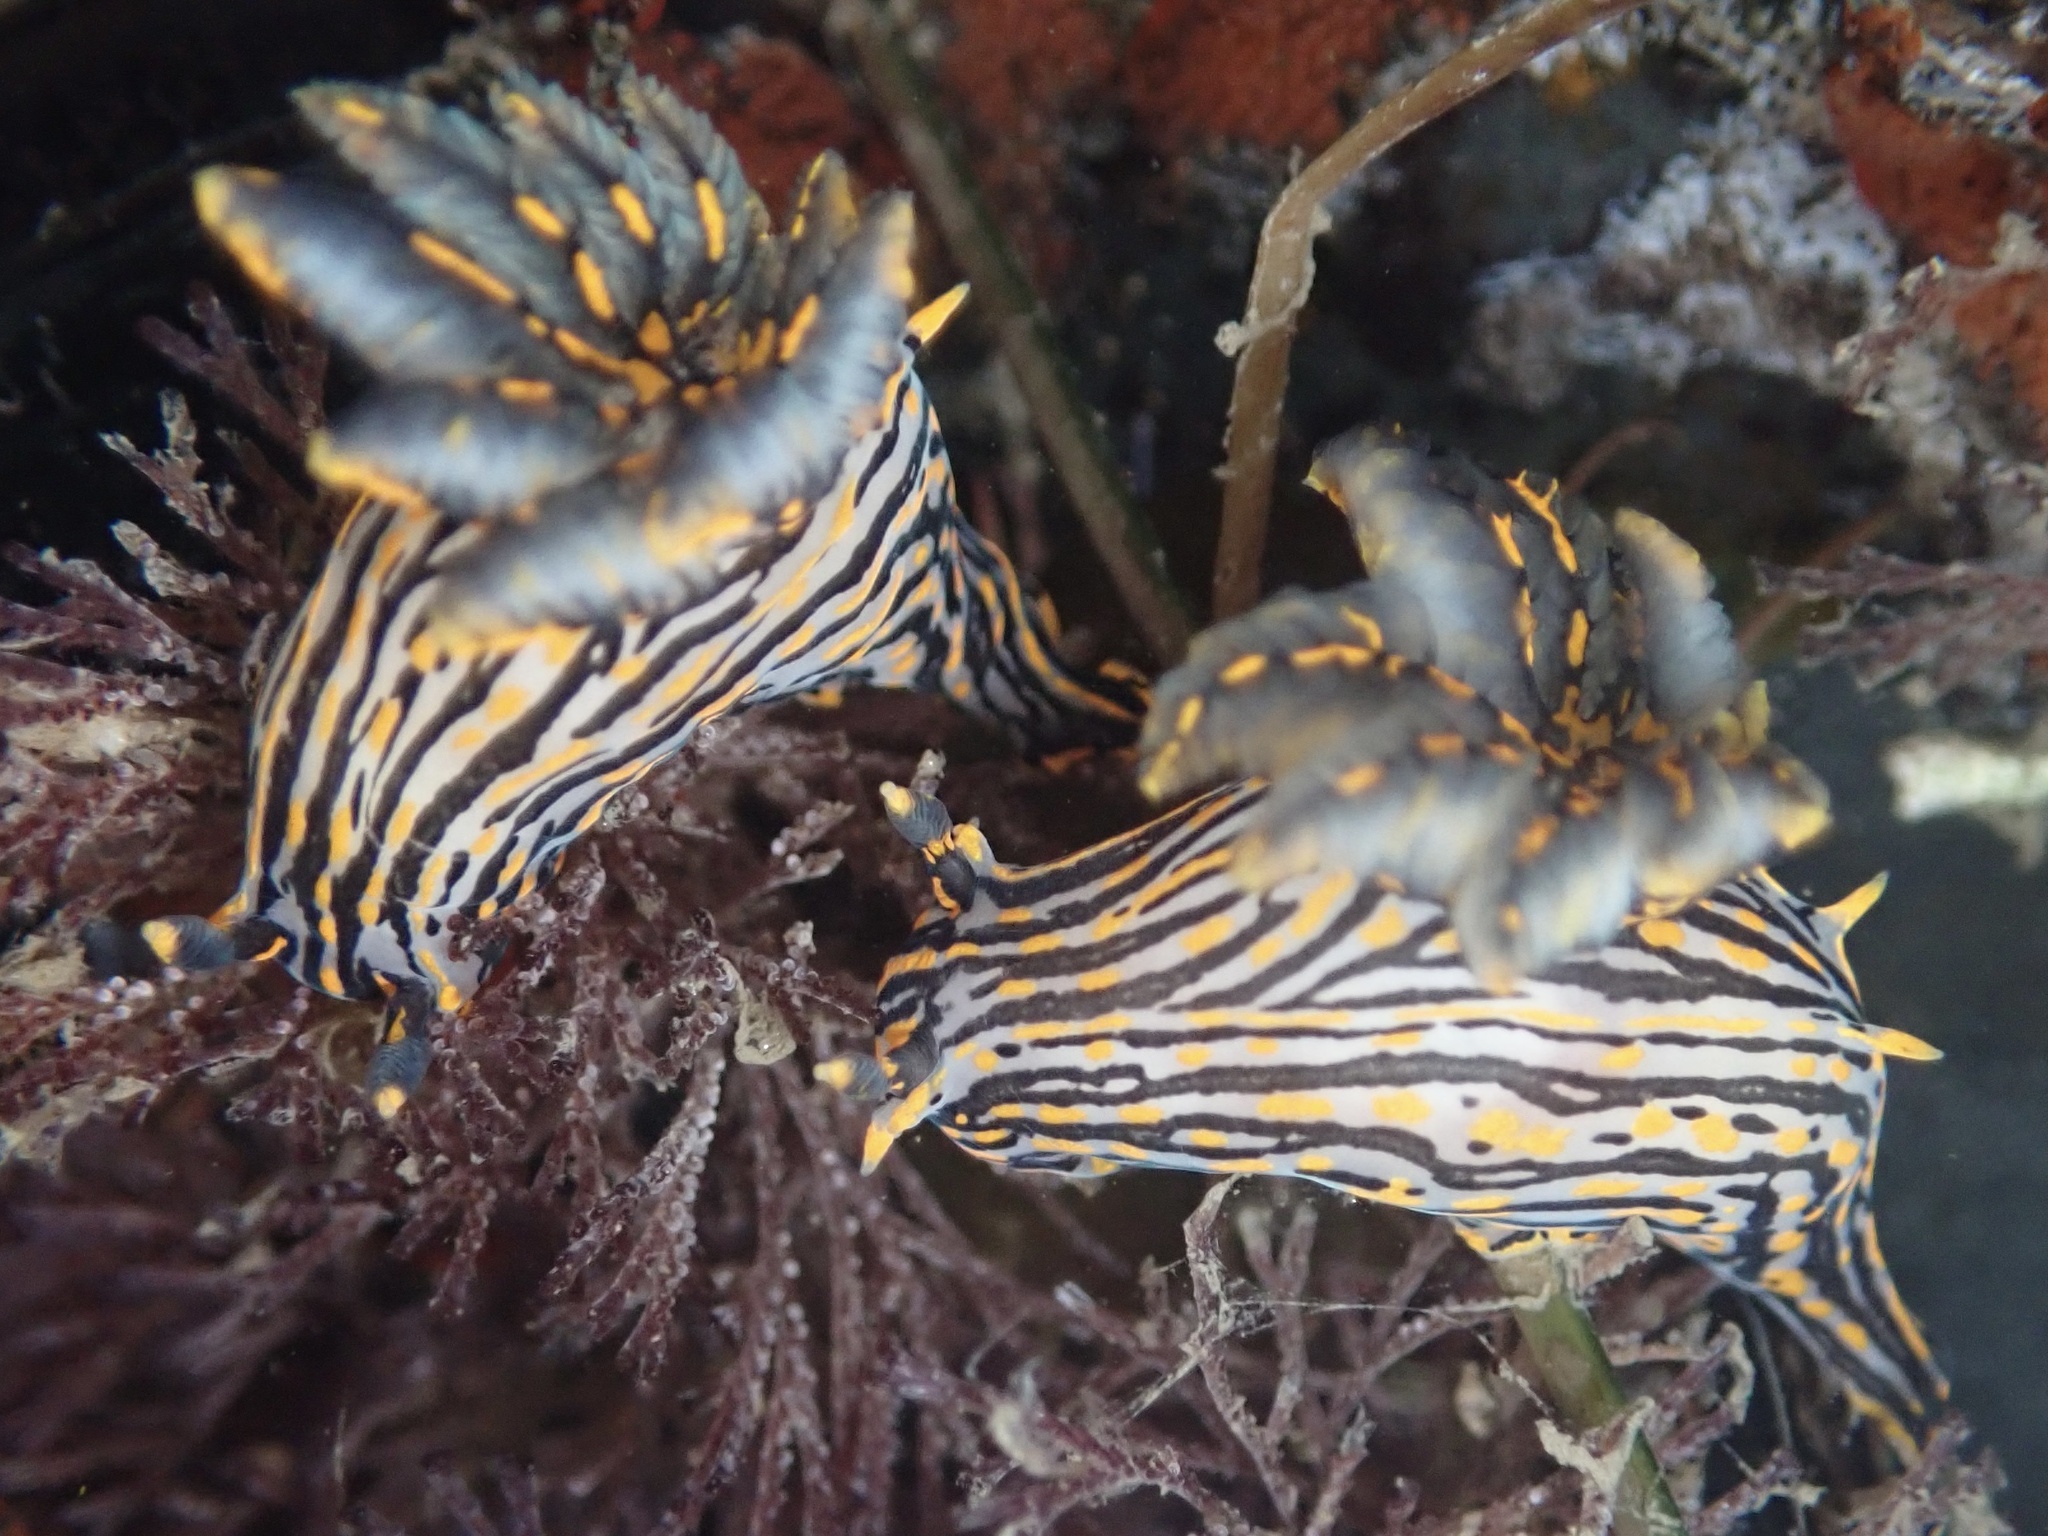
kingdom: Animalia
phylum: Mollusca
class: Gastropoda
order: Nudibranchia
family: Polyceridae
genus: Polycera
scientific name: Polycera atra
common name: Orange-spike polycera
